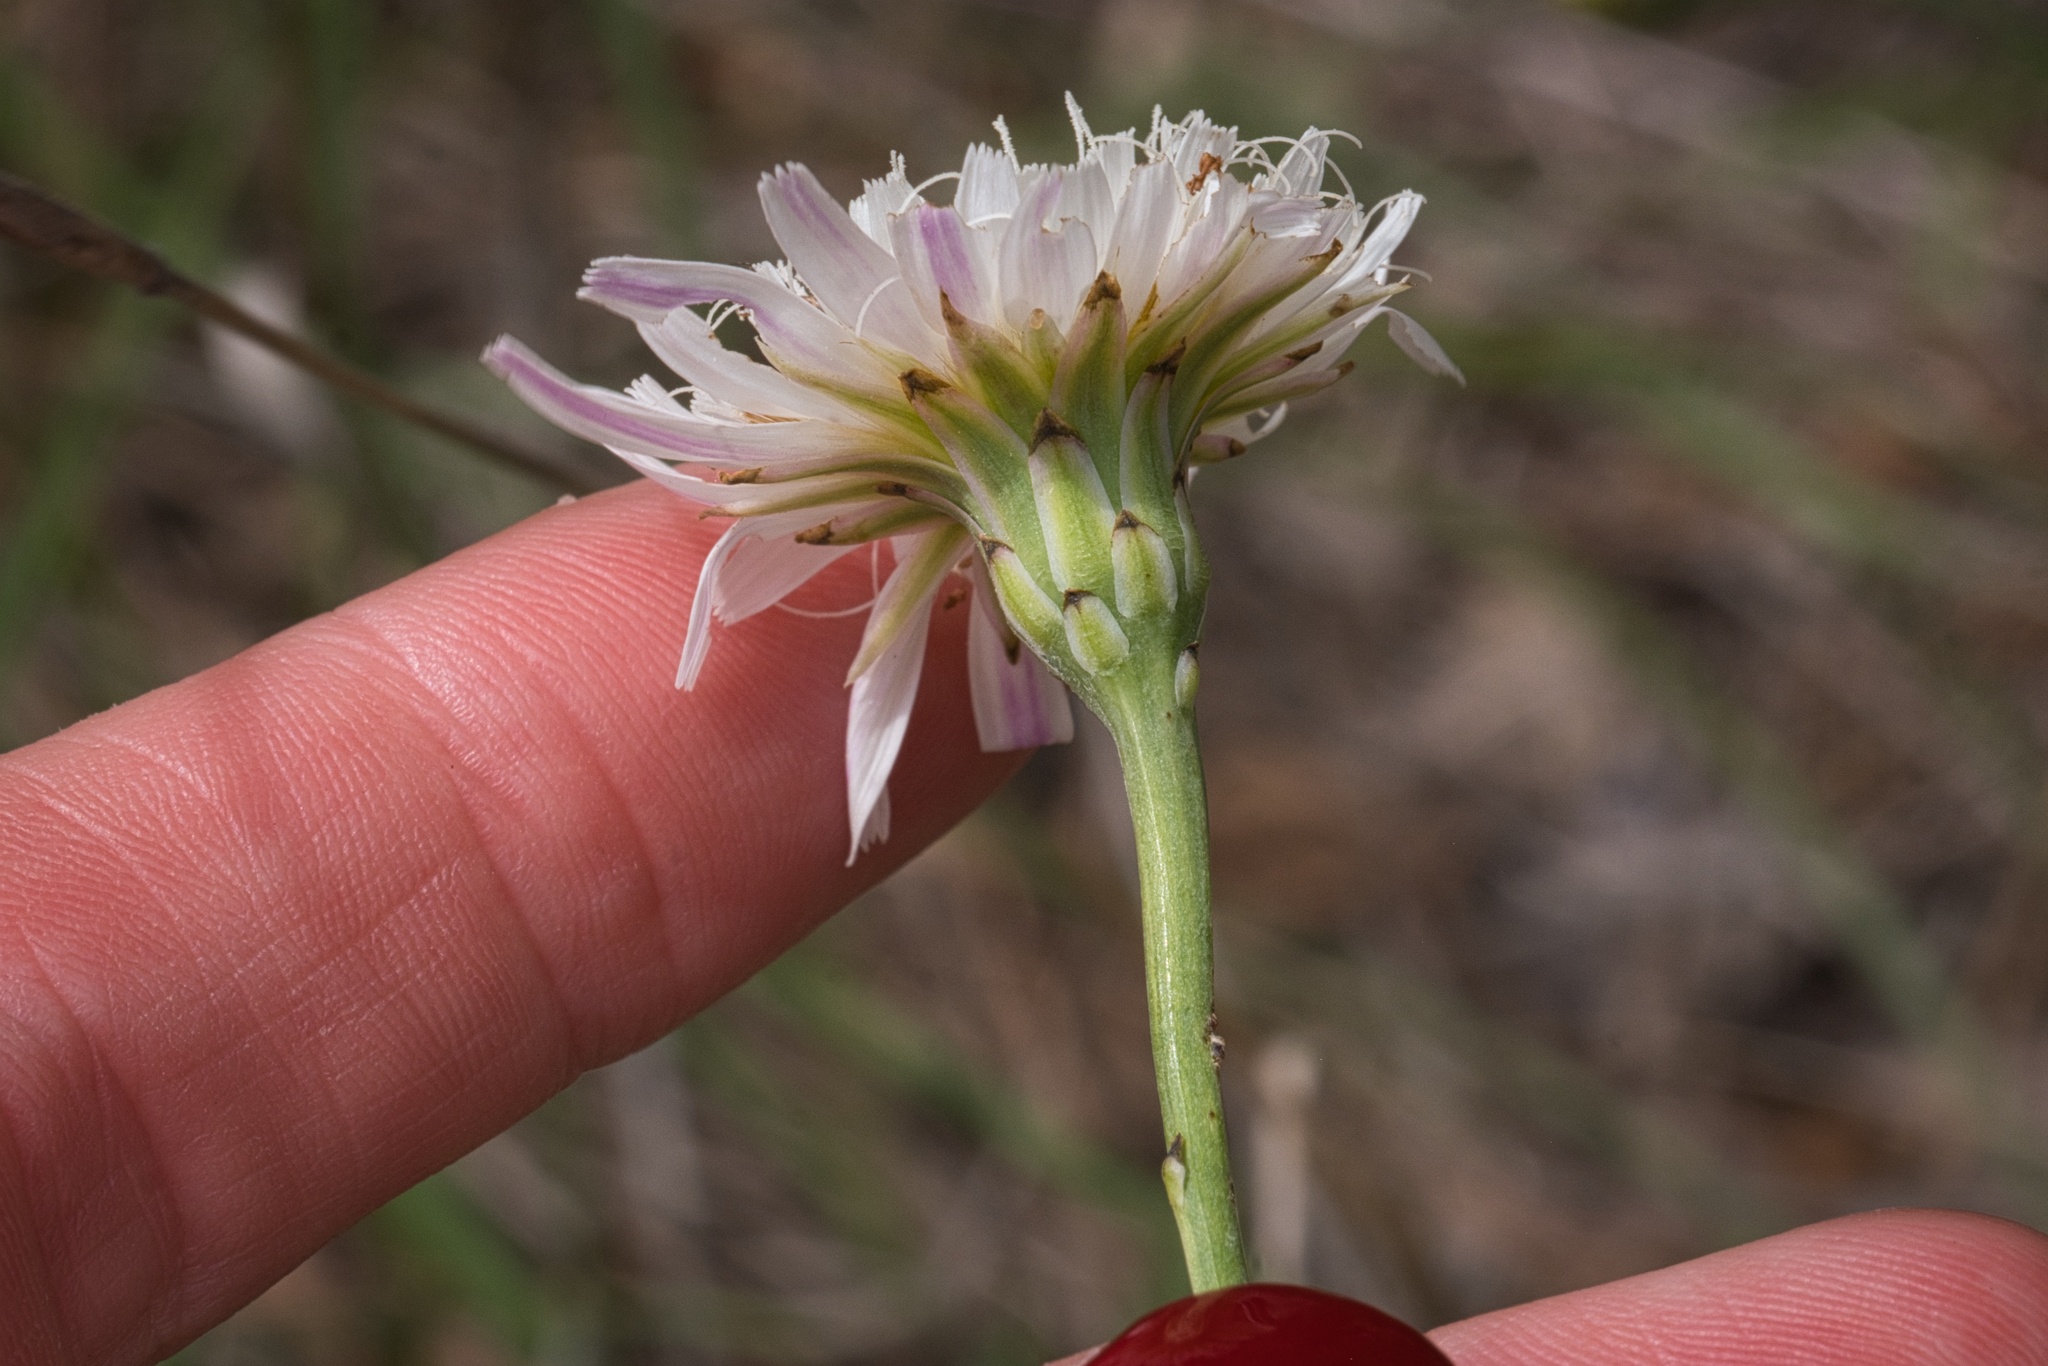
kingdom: Plantae
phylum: Tracheophyta
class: Magnoliopsida
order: Asterales
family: Asteraceae
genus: Pinaropappus
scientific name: Pinaropappus roseus
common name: Rock-lettuce
